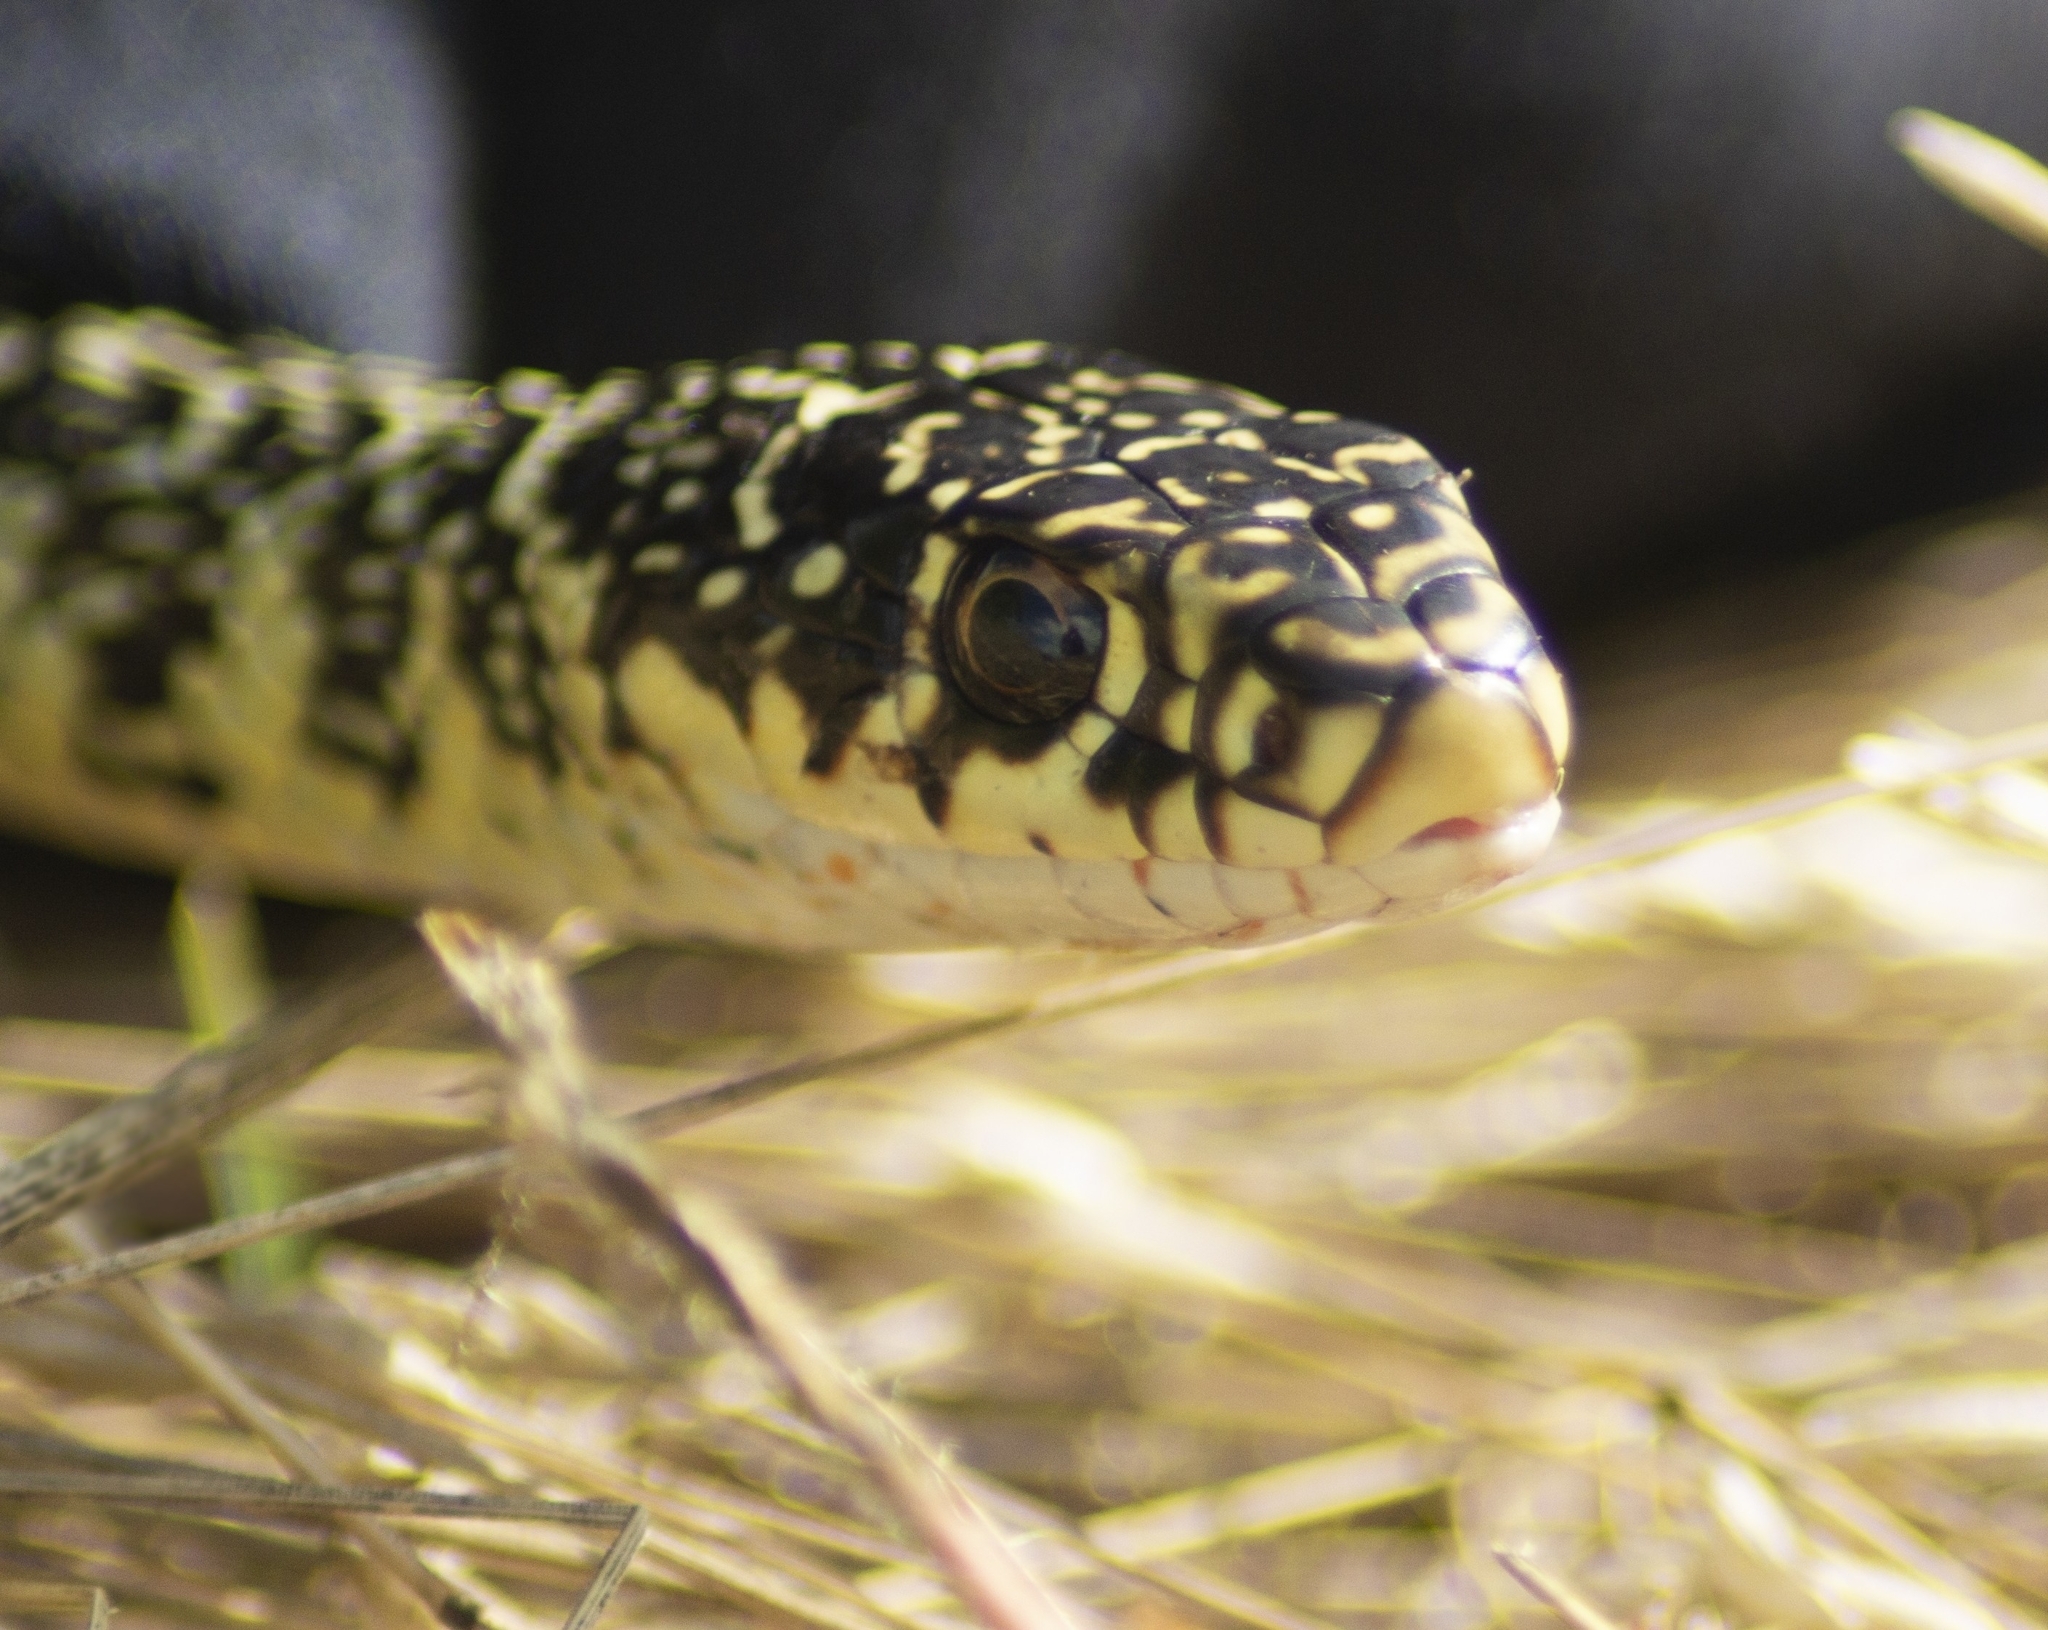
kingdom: Animalia
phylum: Chordata
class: Squamata
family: Colubridae
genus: Hierophis
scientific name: Hierophis viridiflavus
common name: Green whip snake
